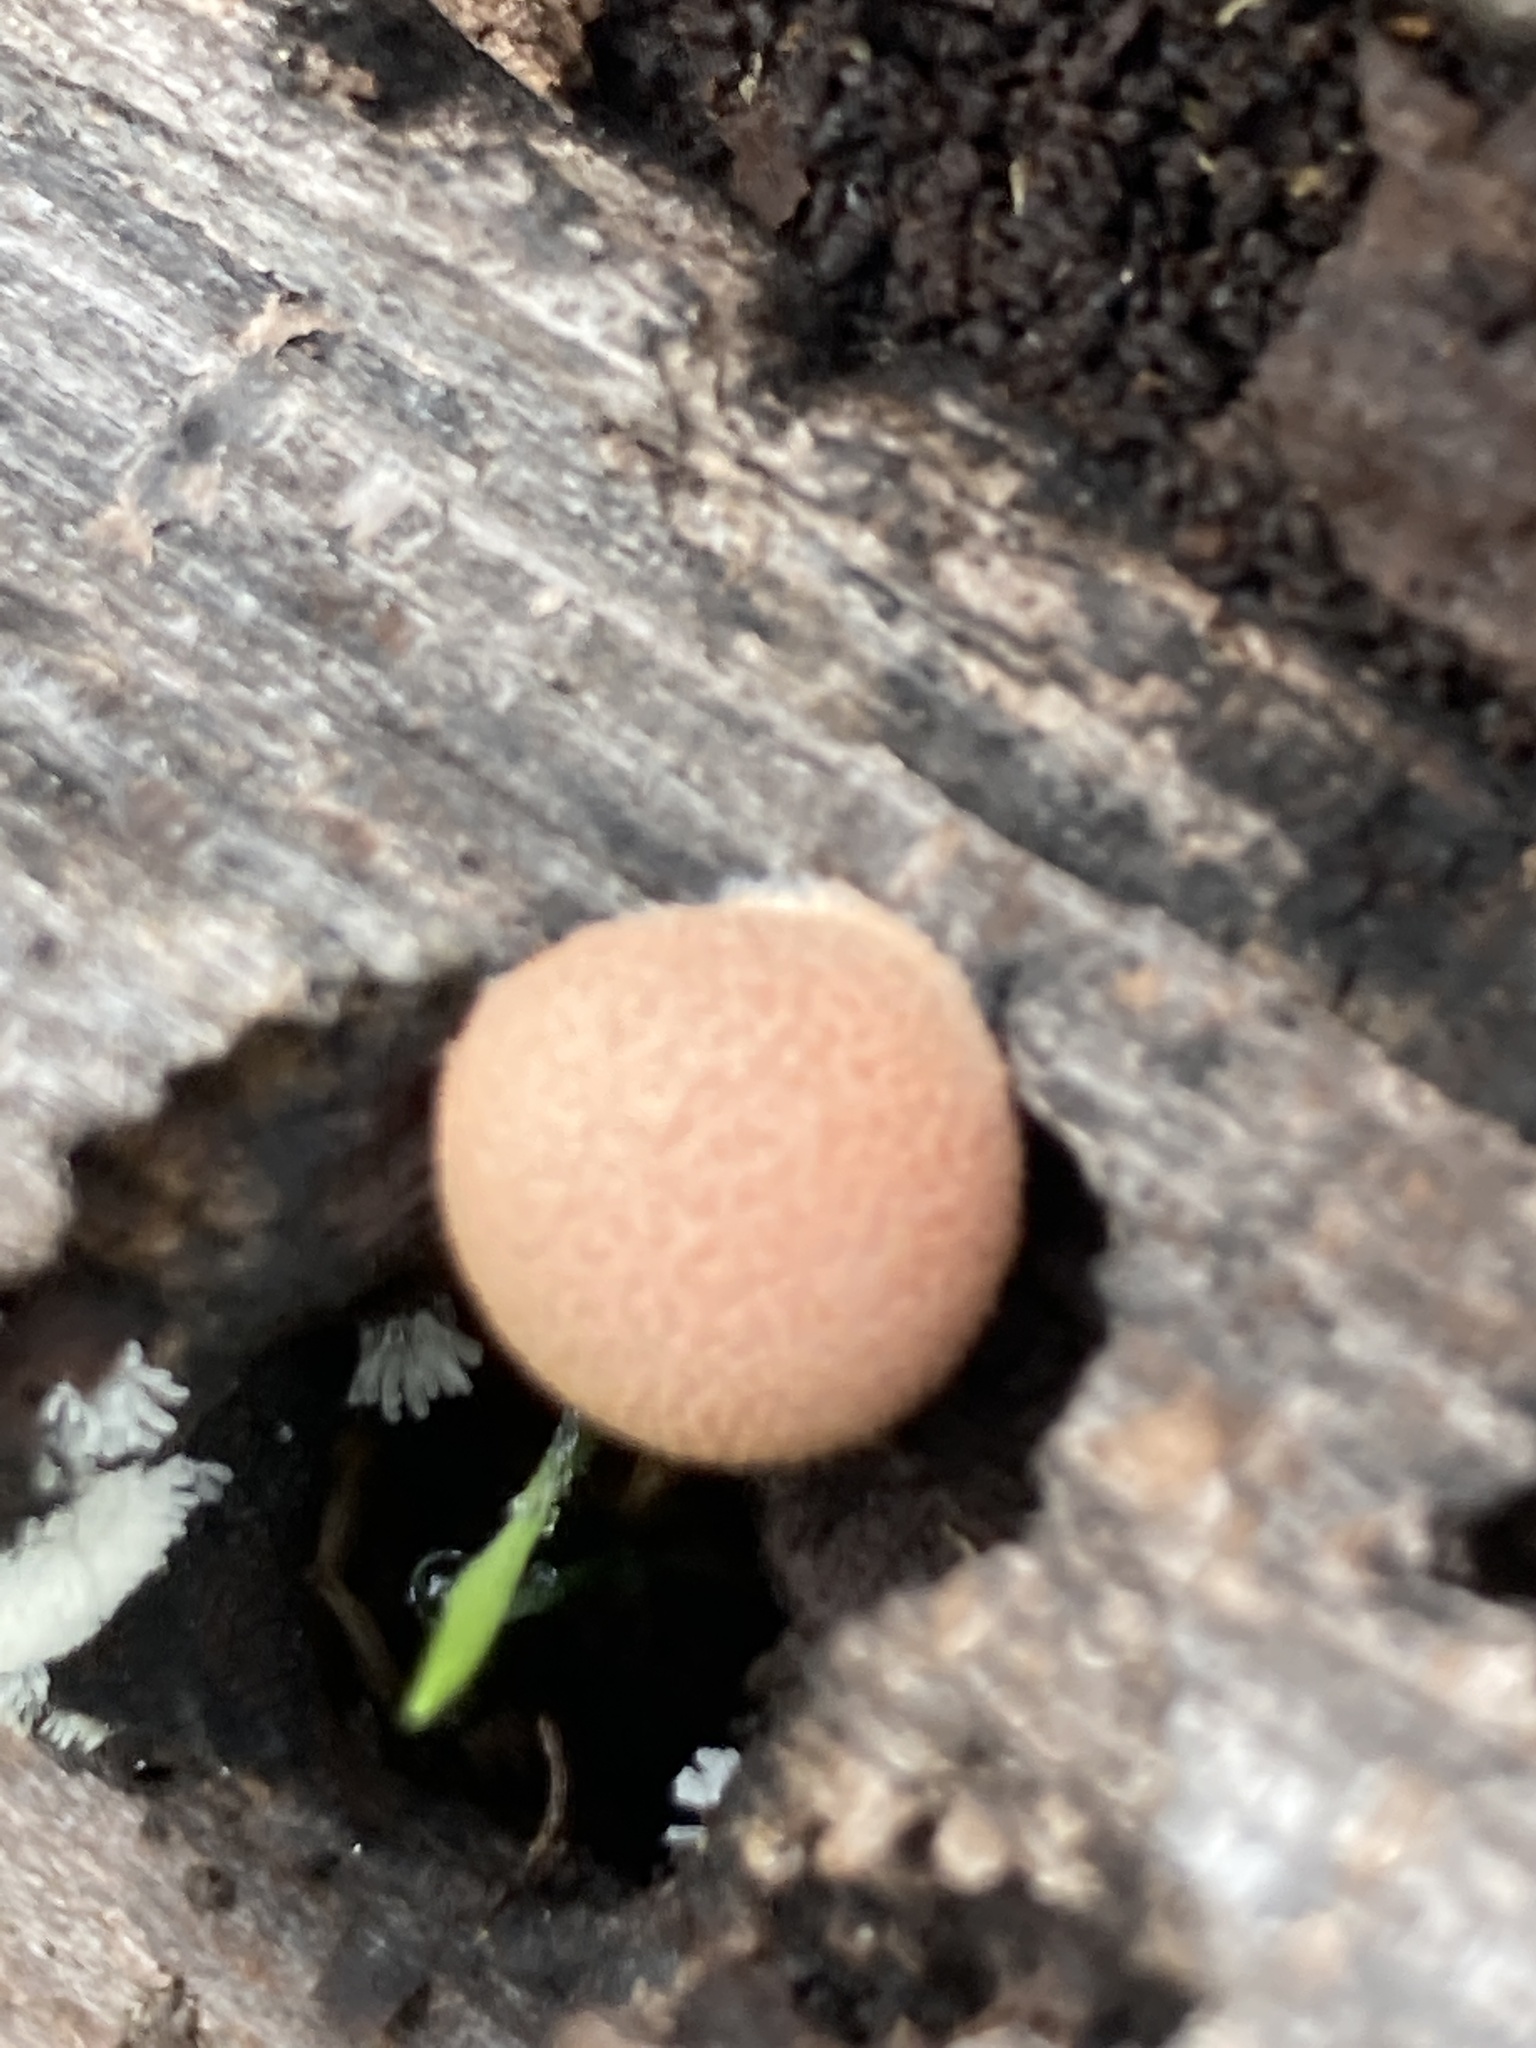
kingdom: Protozoa
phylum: Mycetozoa
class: Myxomycetes
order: Cribrariales
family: Tubiferaceae
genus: Lycogala
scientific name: Lycogala epidendrum
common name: Wolf's milk
